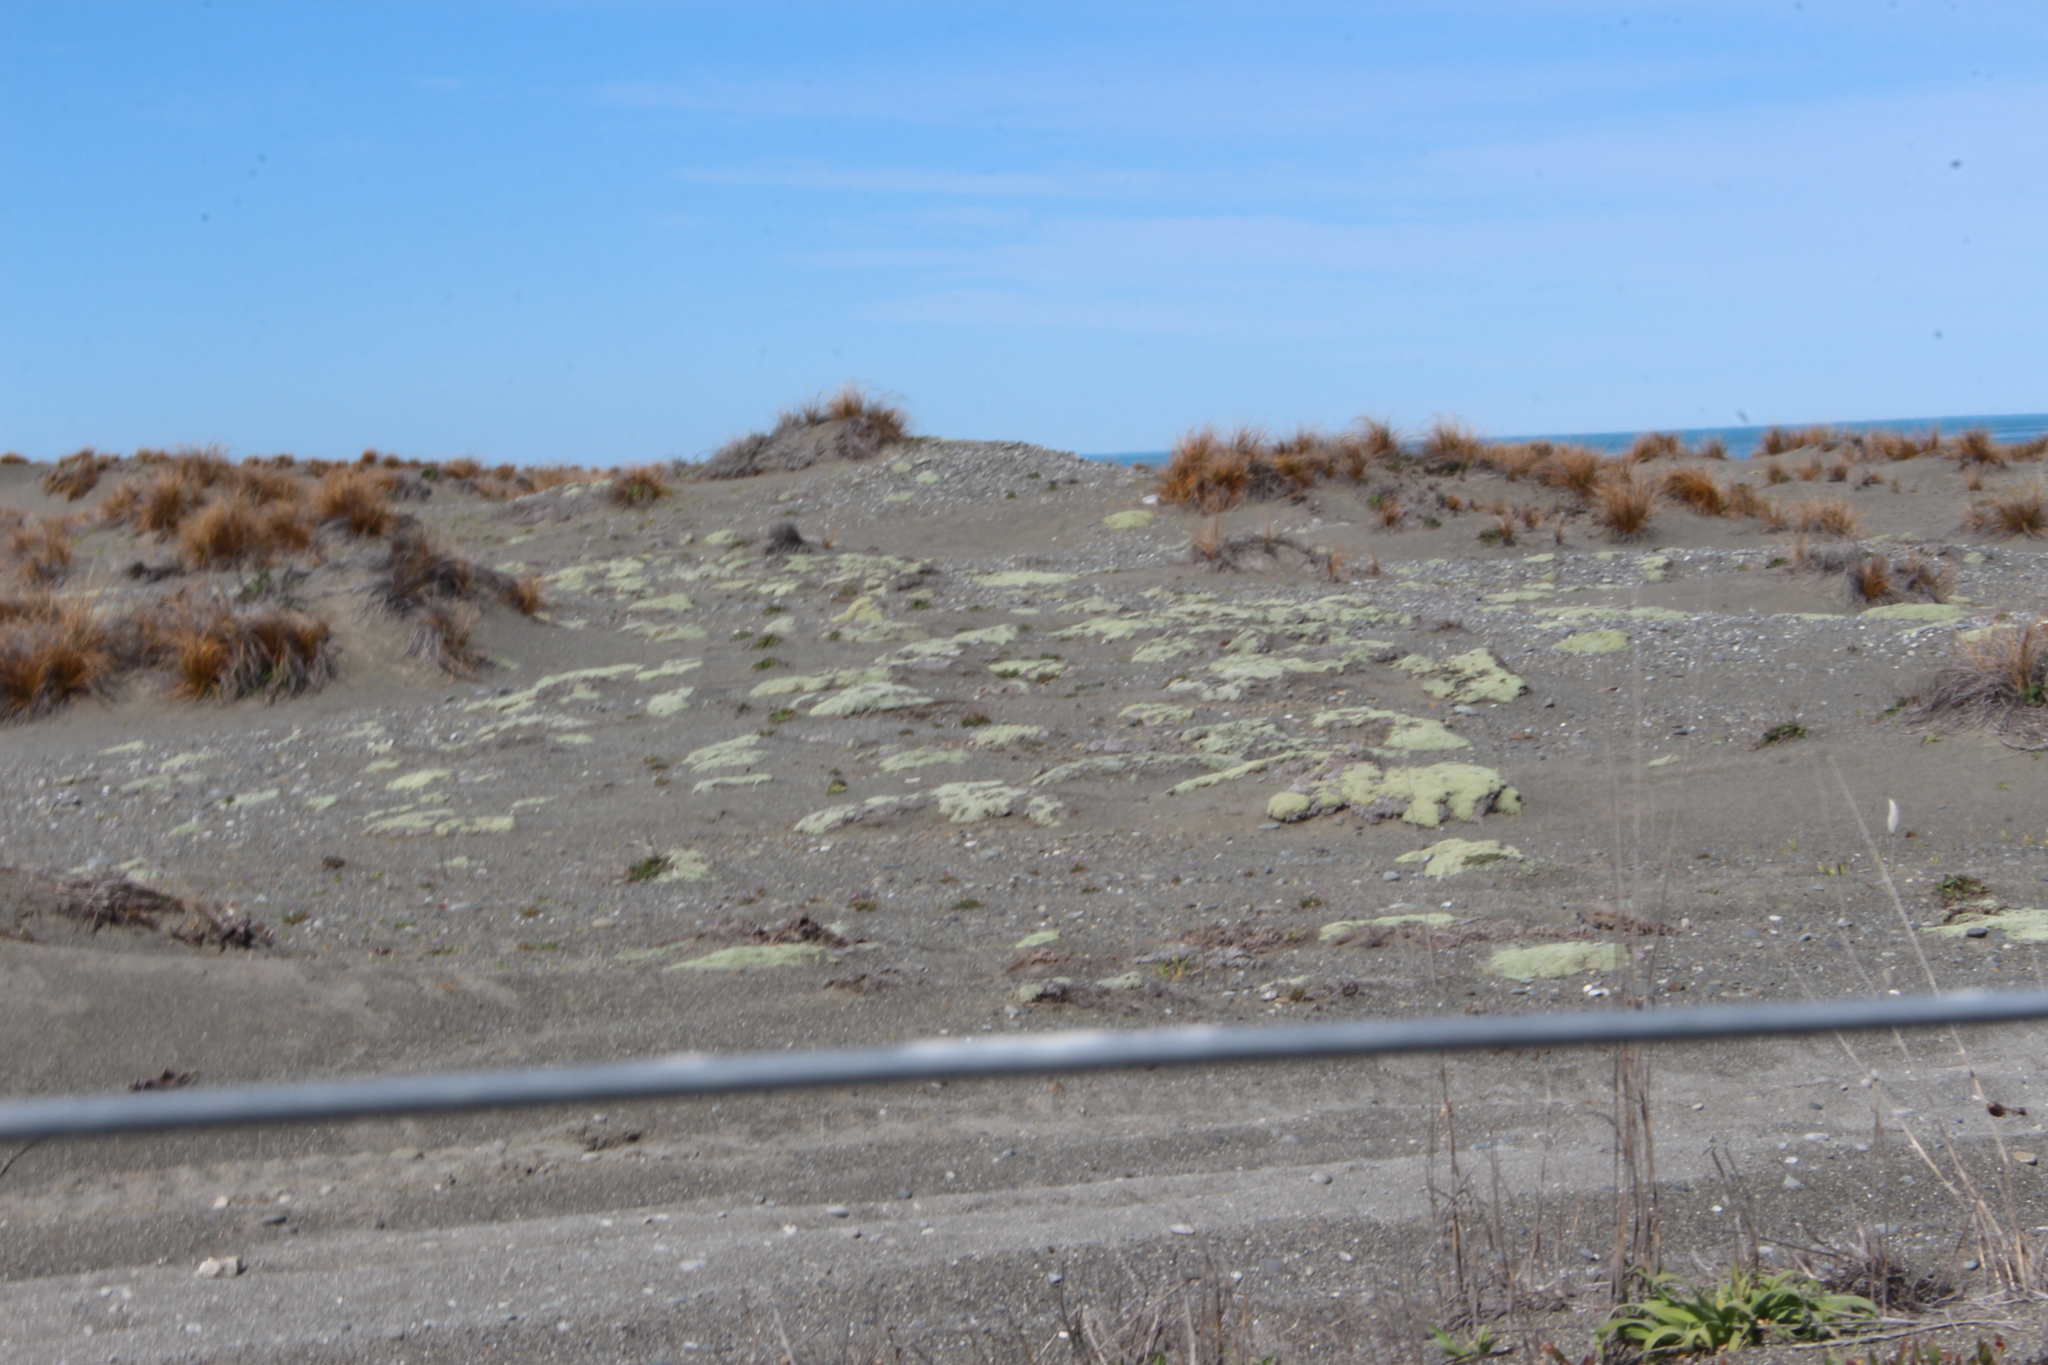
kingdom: Plantae
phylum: Tracheophyta
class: Magnoliopsida
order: Asterales
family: Asteraceae
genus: Raoulia
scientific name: Raoulia australis
